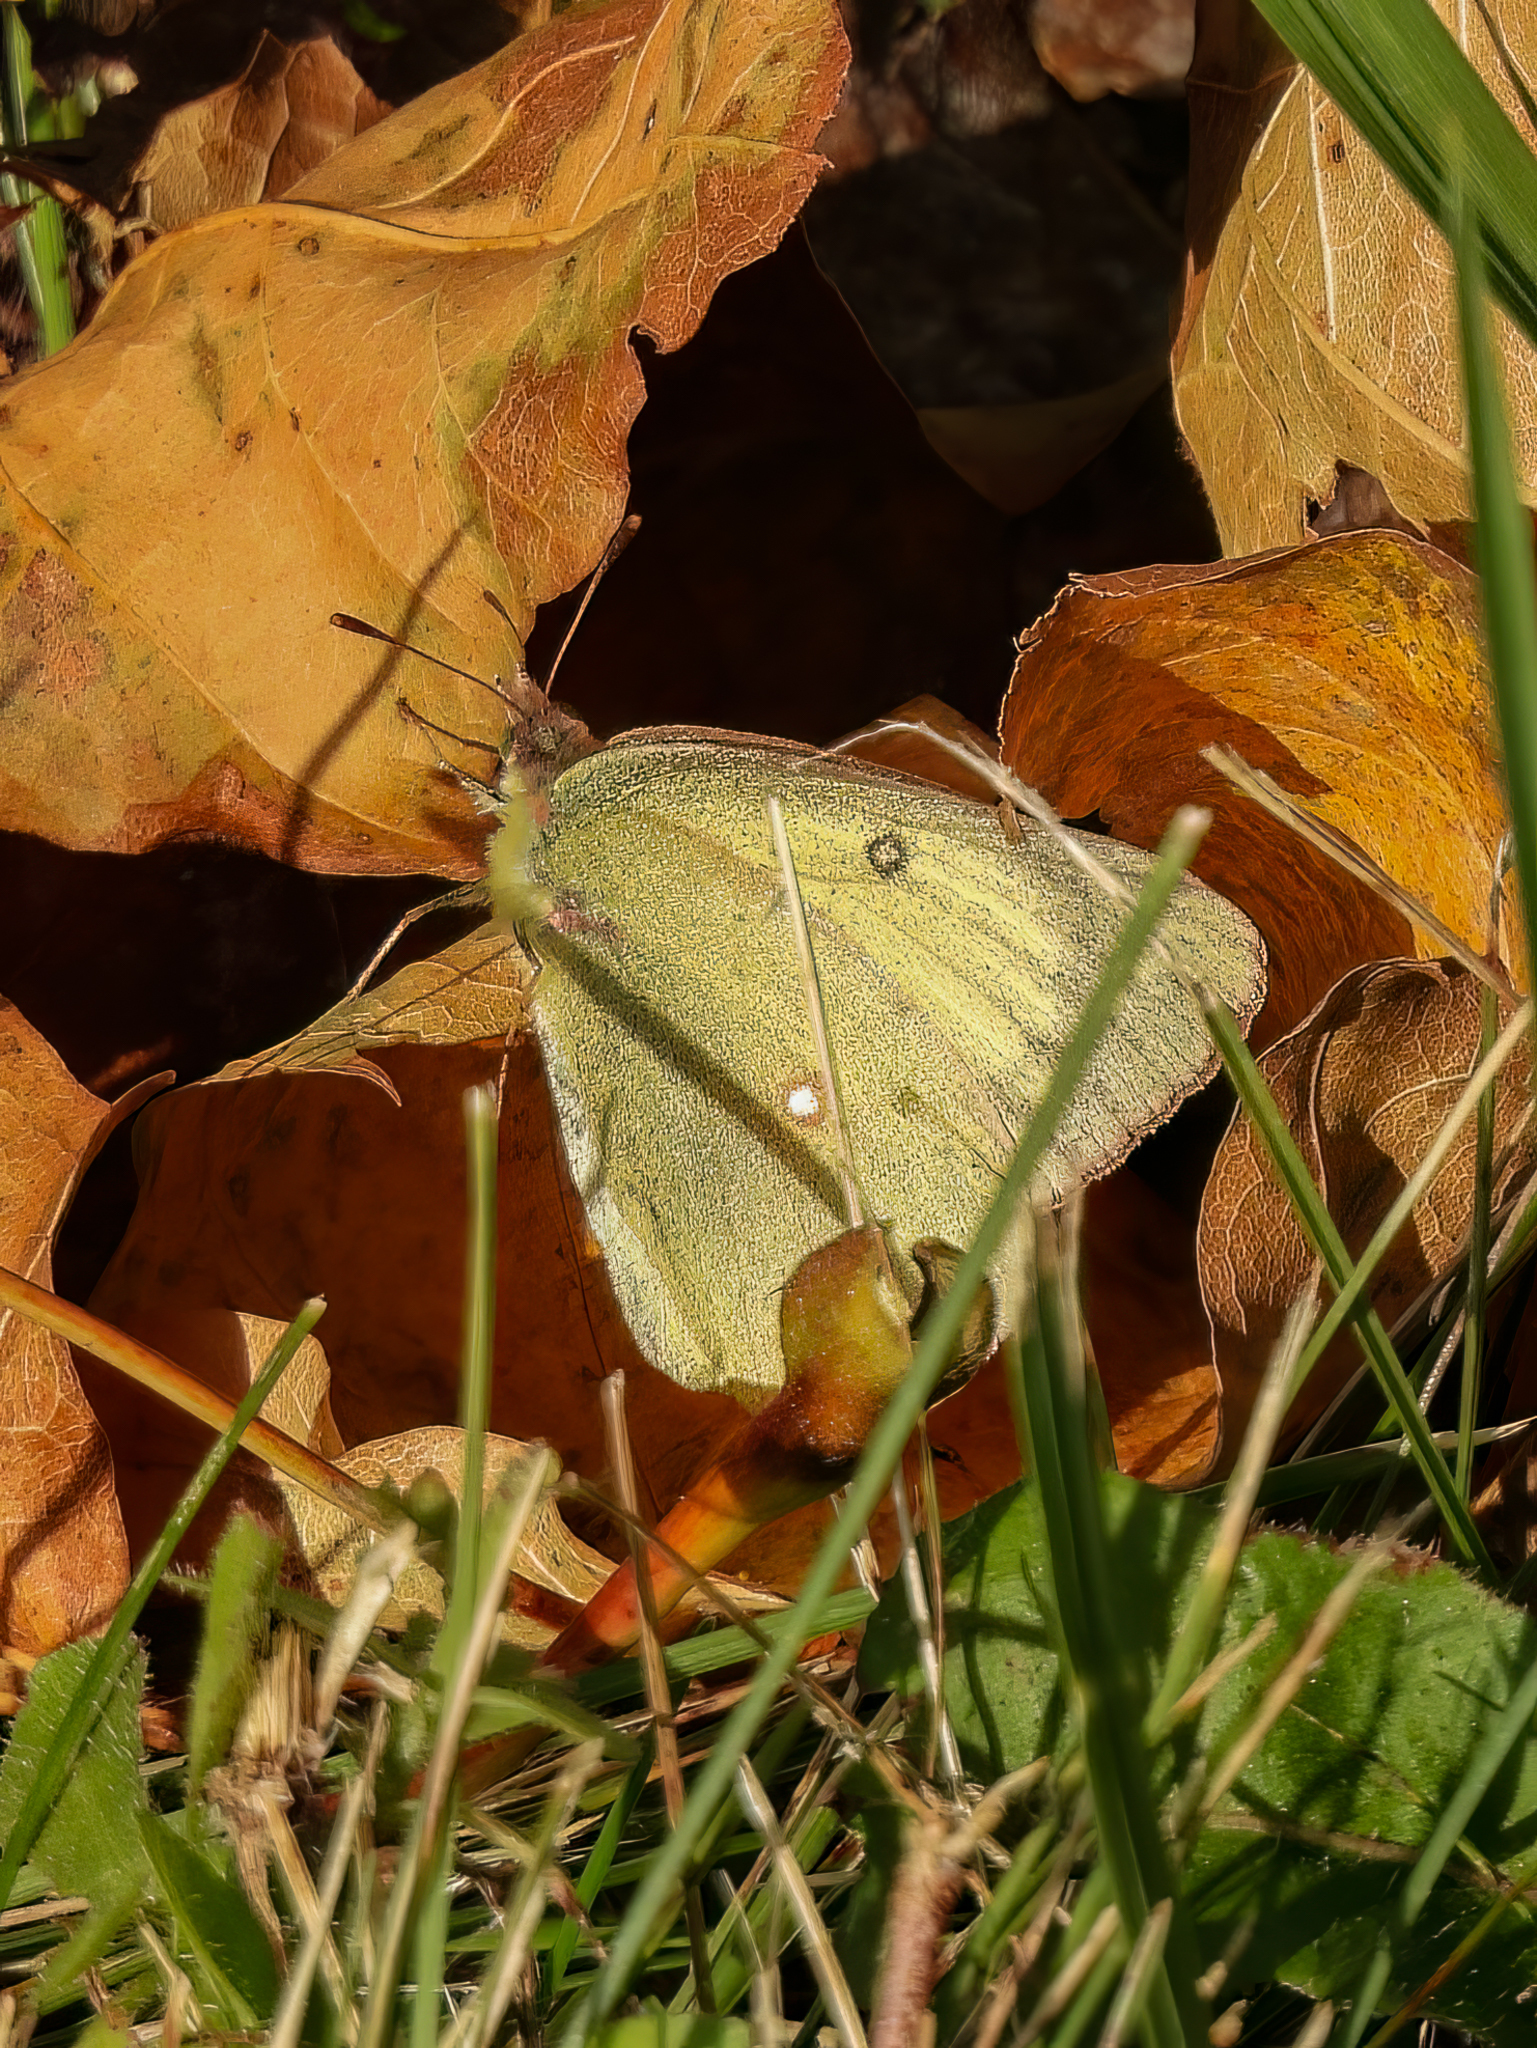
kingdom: Animalia
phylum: Arthropoda
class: Insecta
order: Lepidoptera
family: Pieridae
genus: Colias
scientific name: Colias philodice
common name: Clouded sulphur
